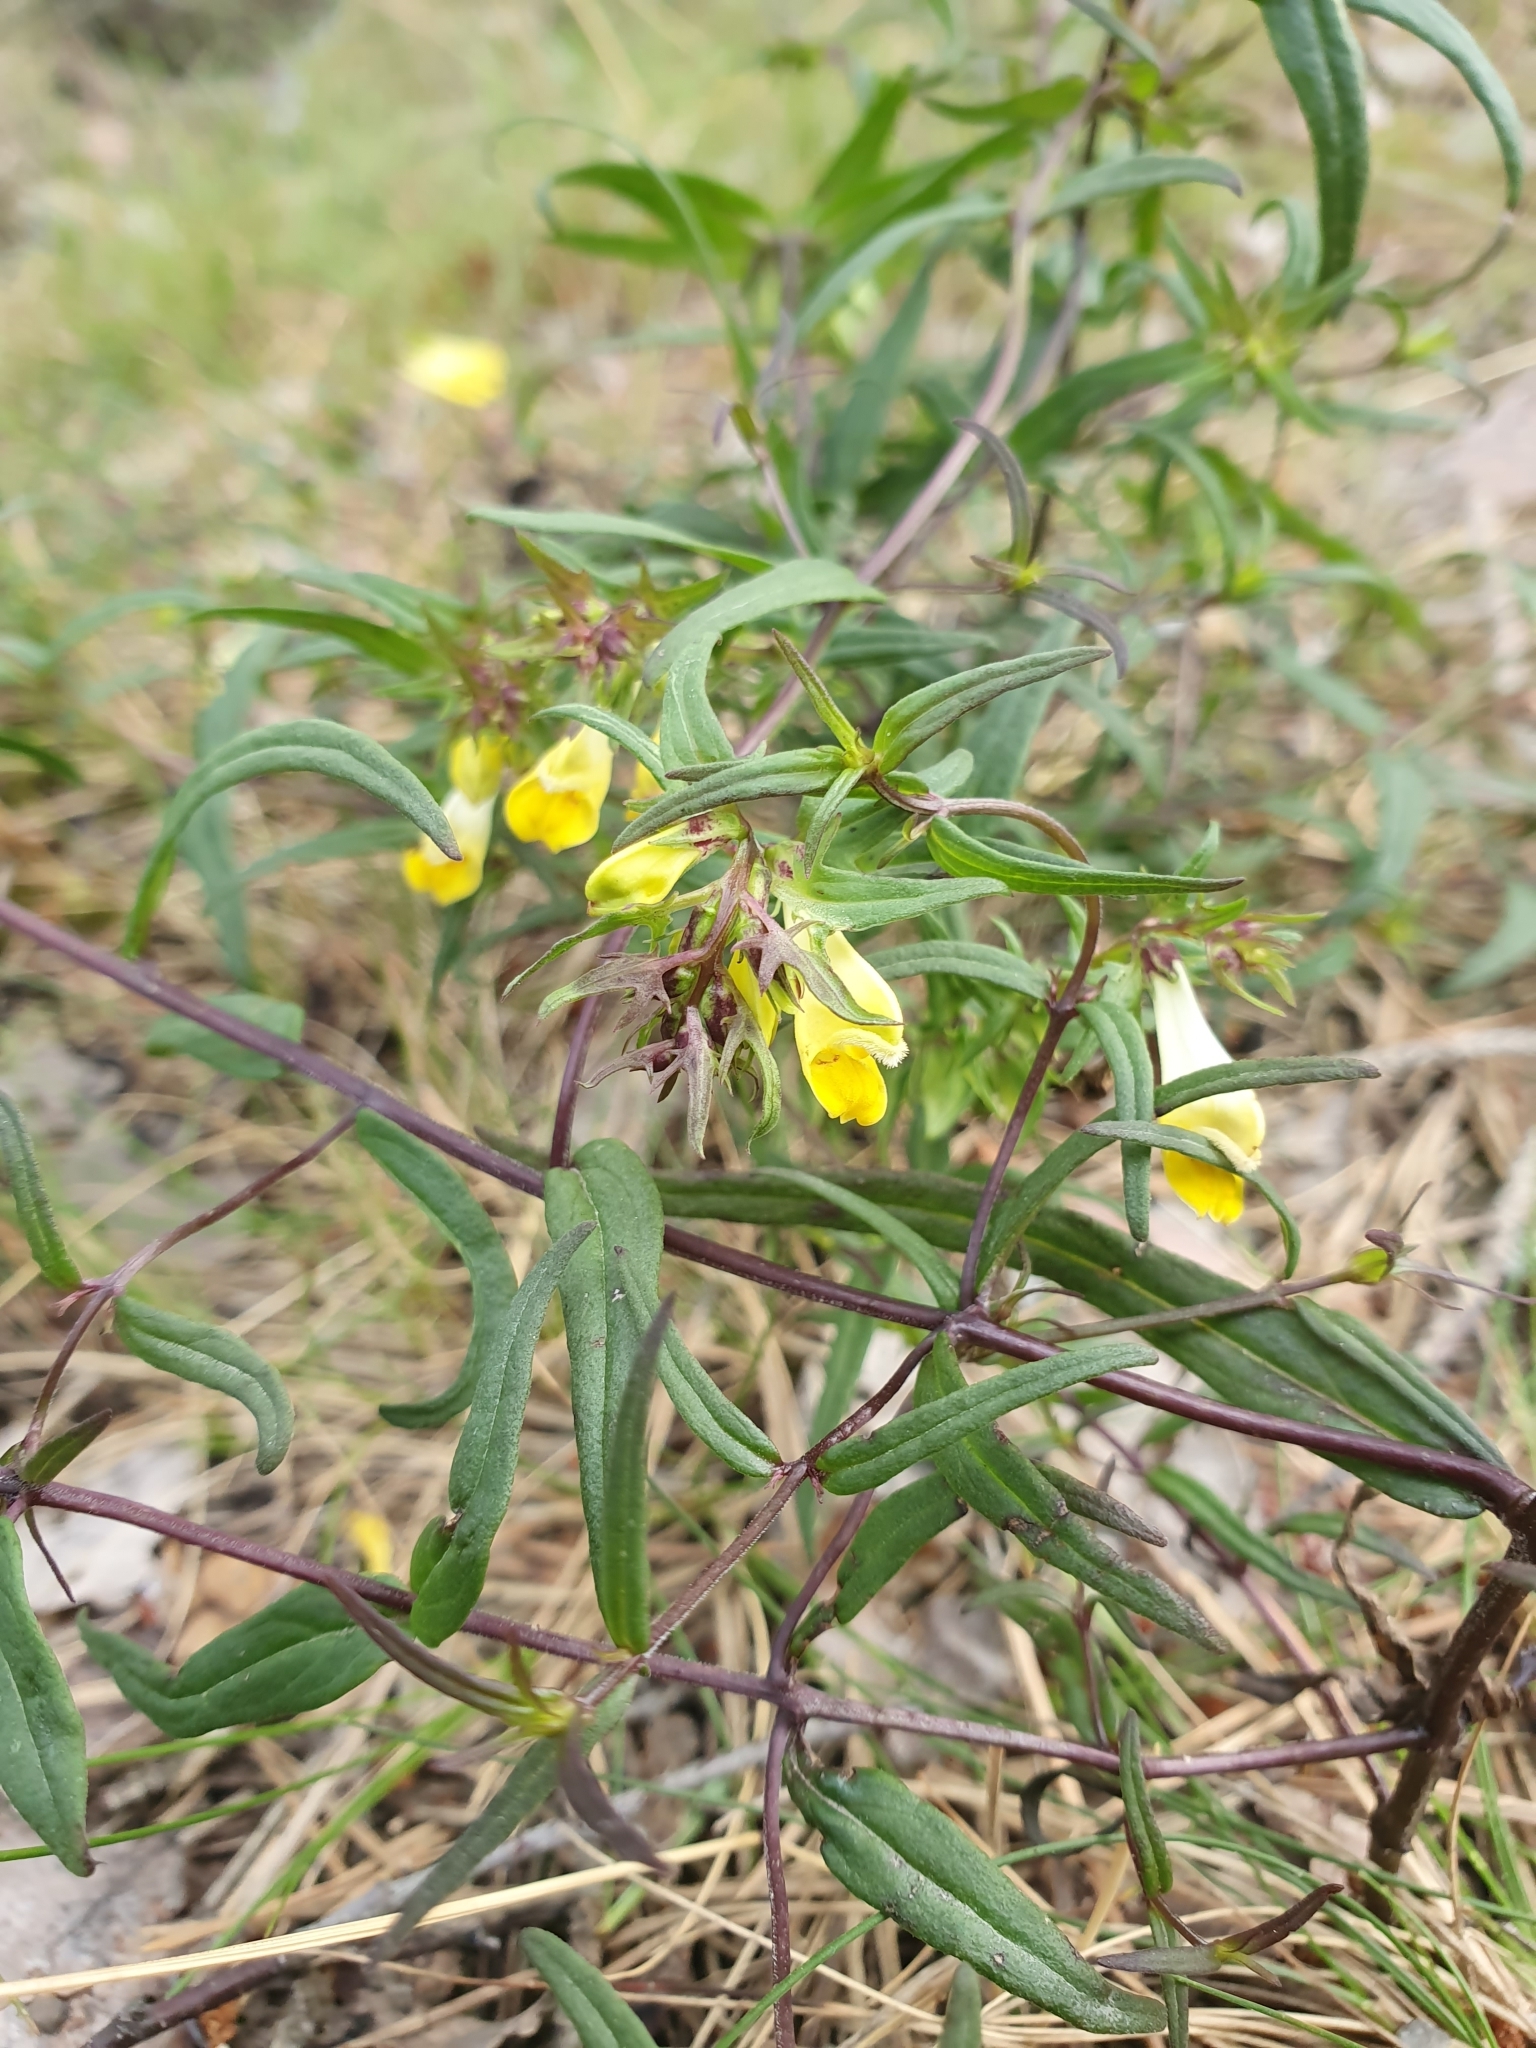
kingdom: Plantae
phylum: Tracheophyta
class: Magnoliopsida
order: Lamiales
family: Orobanchaceae
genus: Melampyrum
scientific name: Melampyrum pratense
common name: Common cow-wheat
